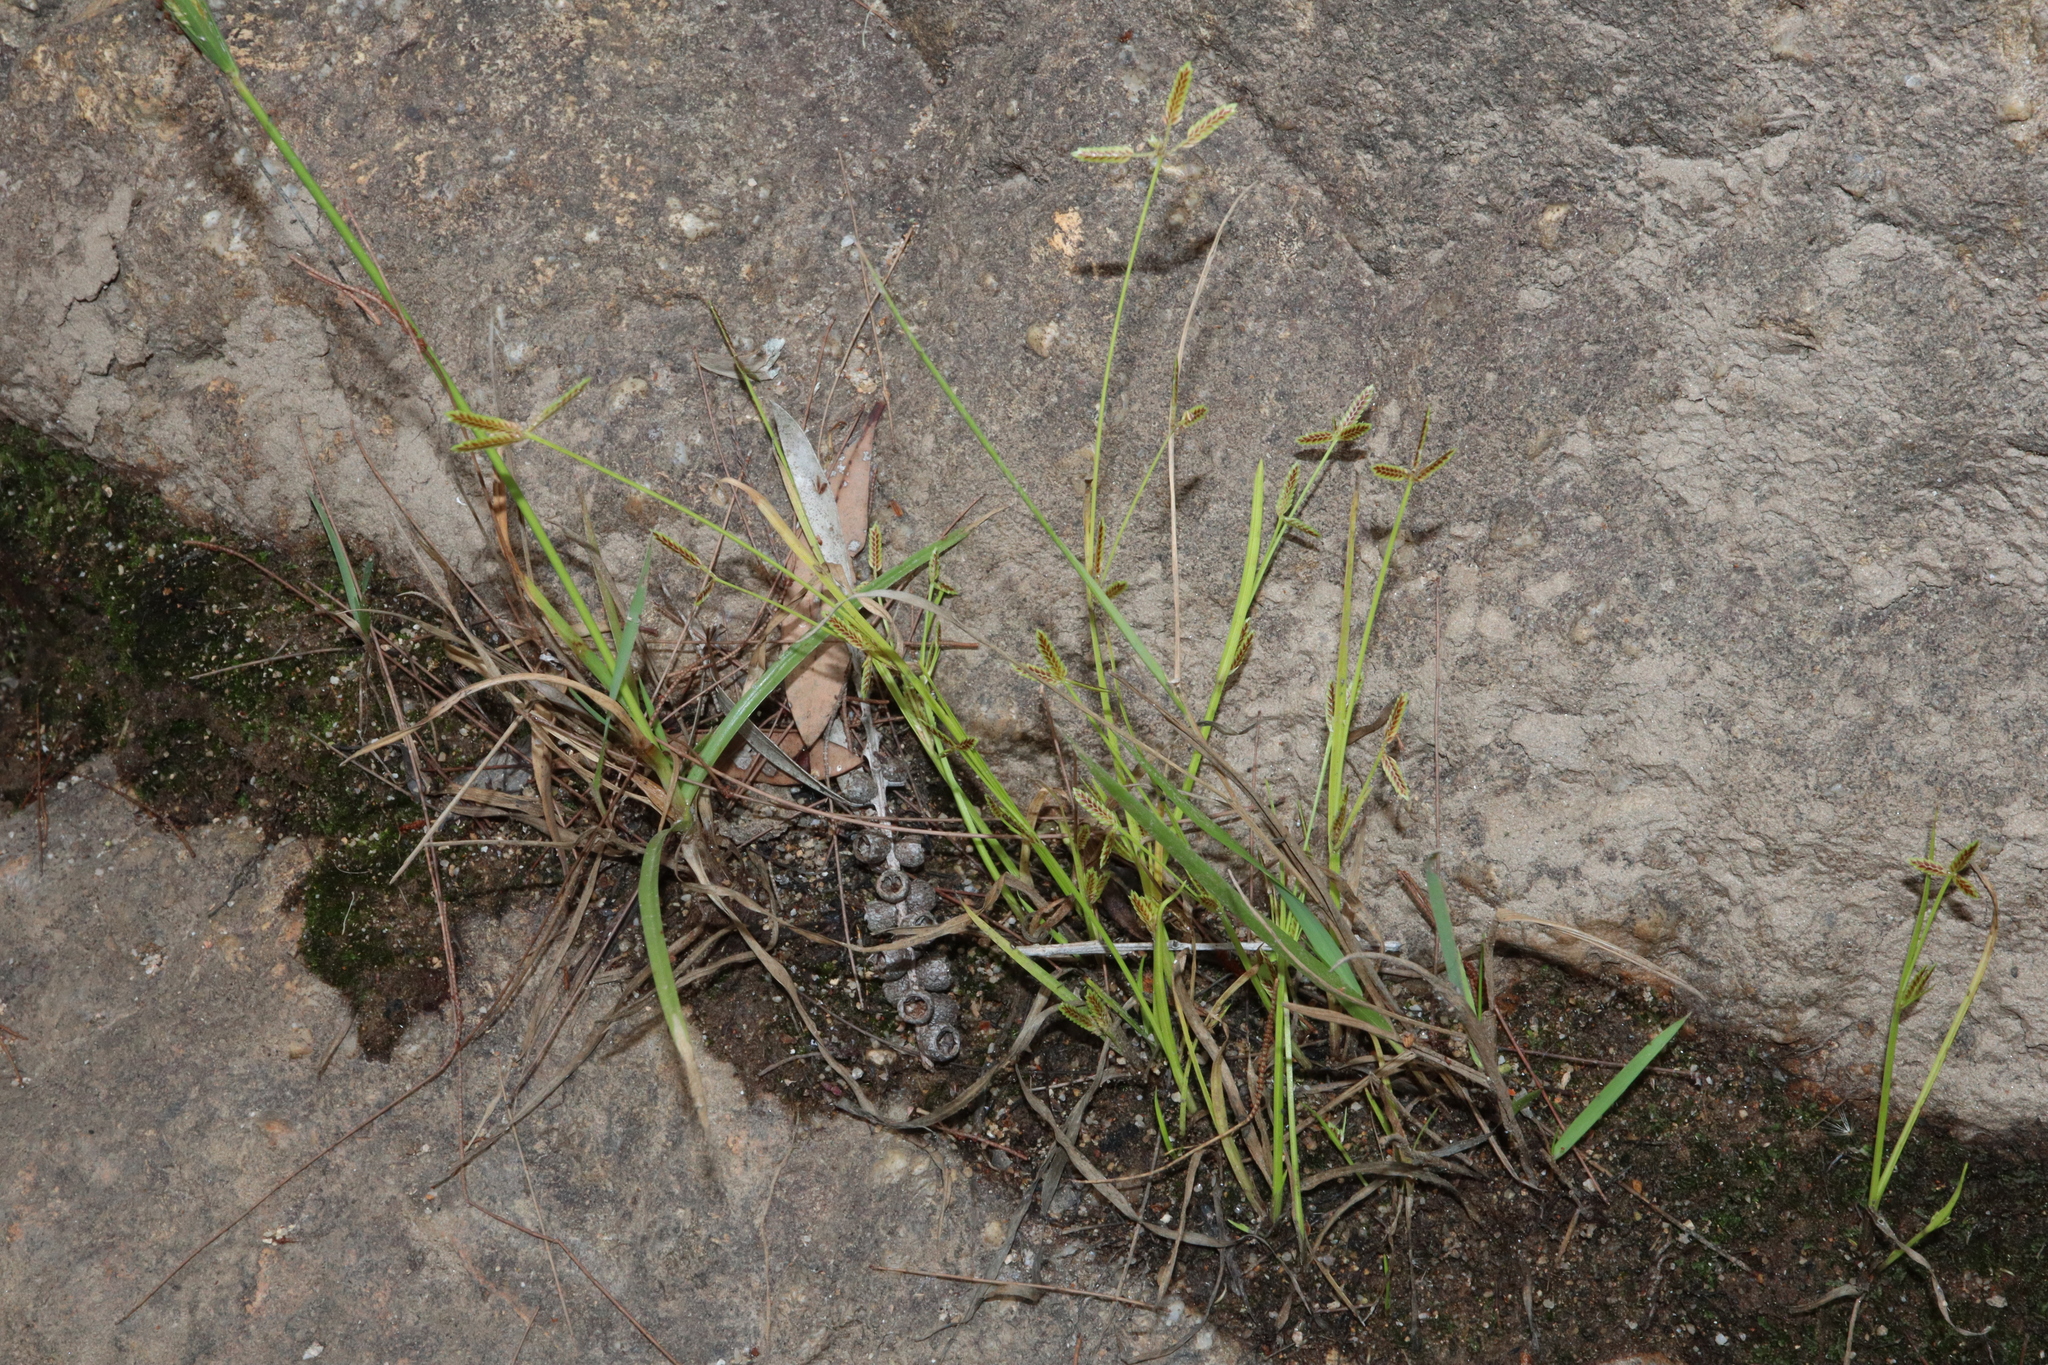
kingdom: Plantae
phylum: Tracheophyta
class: Liliopsida
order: Poales
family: Cyperaceae
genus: Cyperus
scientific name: Cyperus aquatilis
